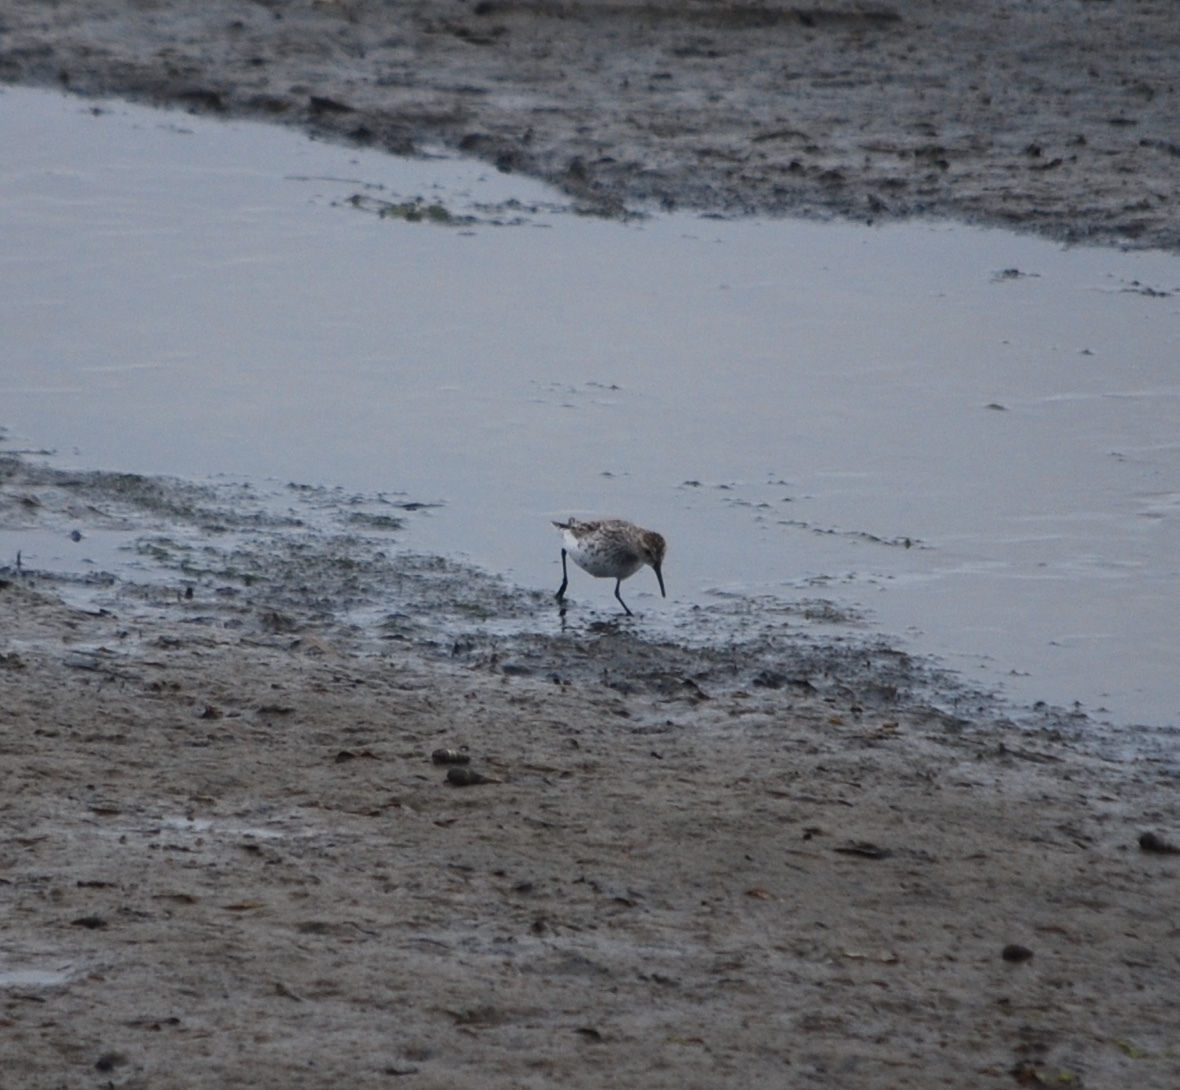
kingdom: Animalia
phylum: Chordata
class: Aves
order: Charadriiformes
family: Scolopacidae
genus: Calidris
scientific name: Calidris mauri
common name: Western sandpiper
